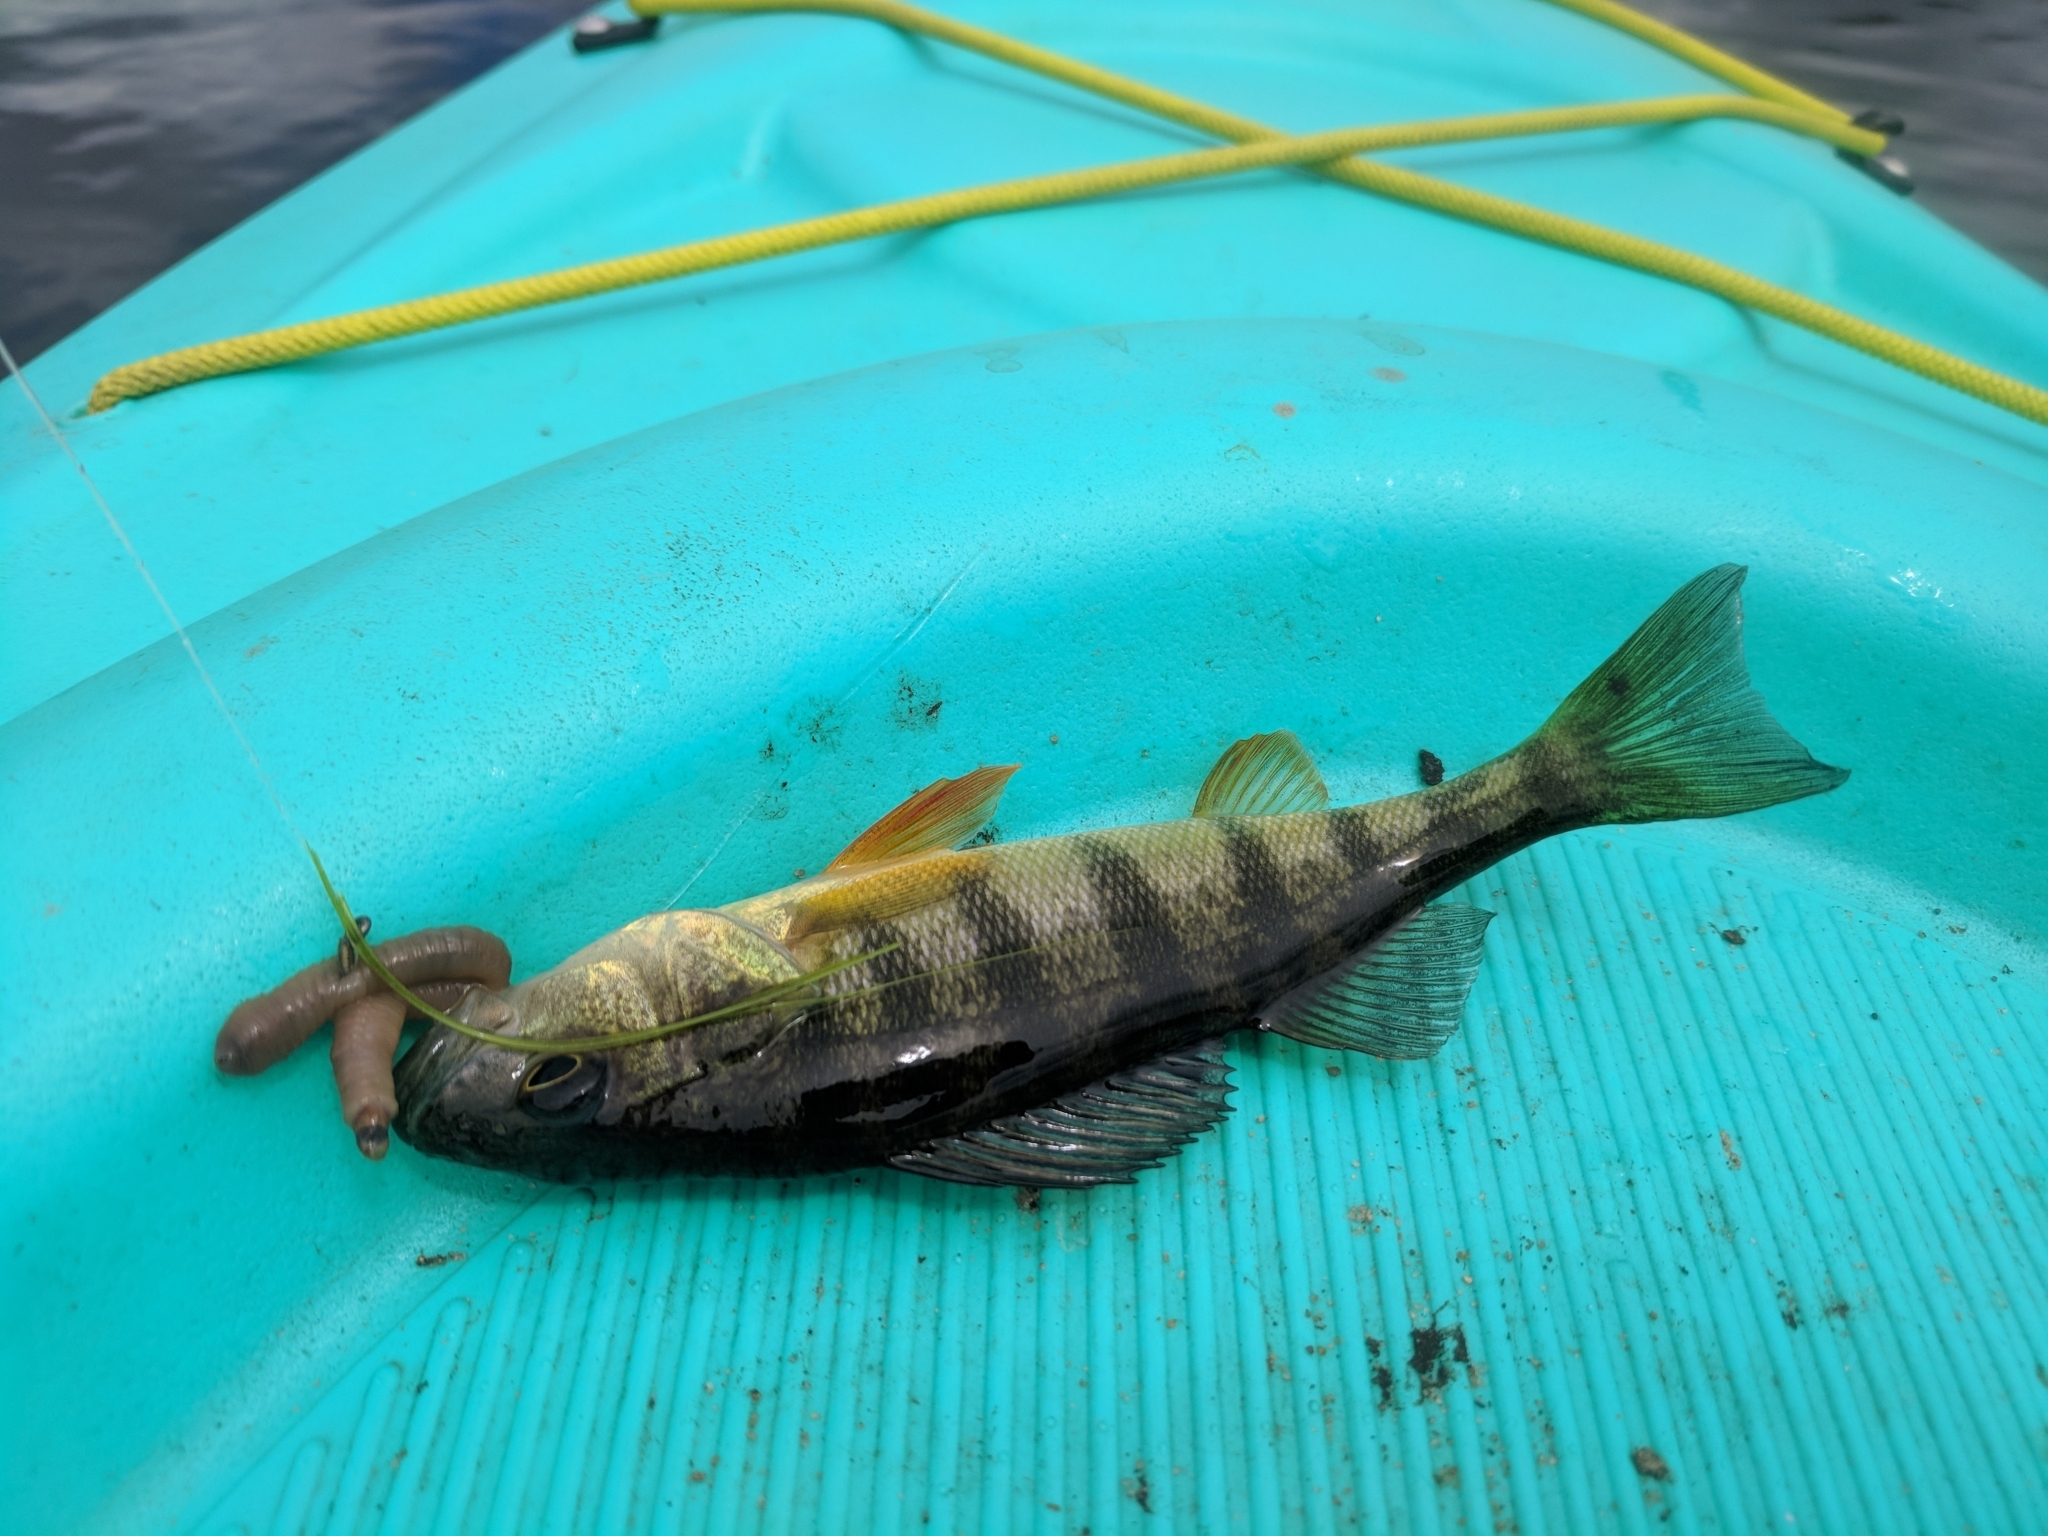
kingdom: Animalia
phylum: Chordata
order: Perciformes
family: Percidae
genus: Perca
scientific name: Perca flavescens
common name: Yellow perch
